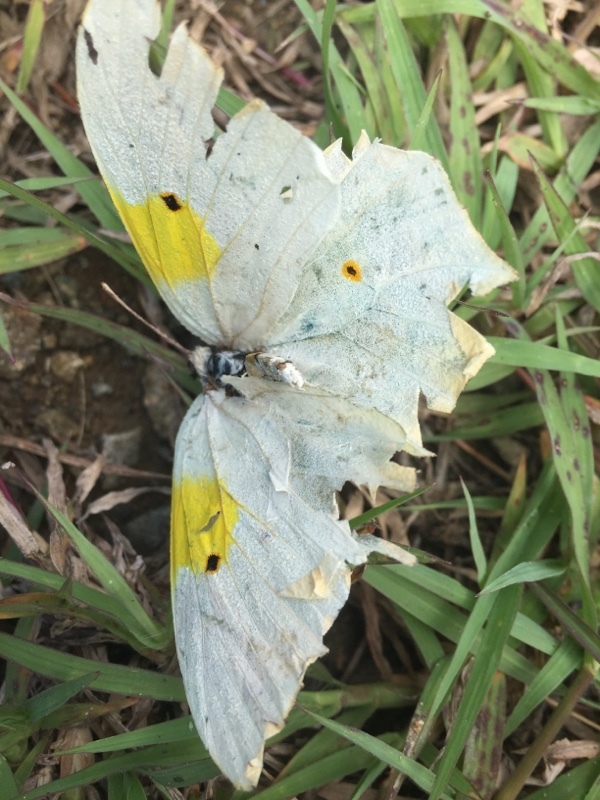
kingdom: Animalia
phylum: Arthropoda
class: Insecta
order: Lepidoptera
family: Pieridae
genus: Anteos
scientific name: Anteos clorinde
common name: White angled sulphur
